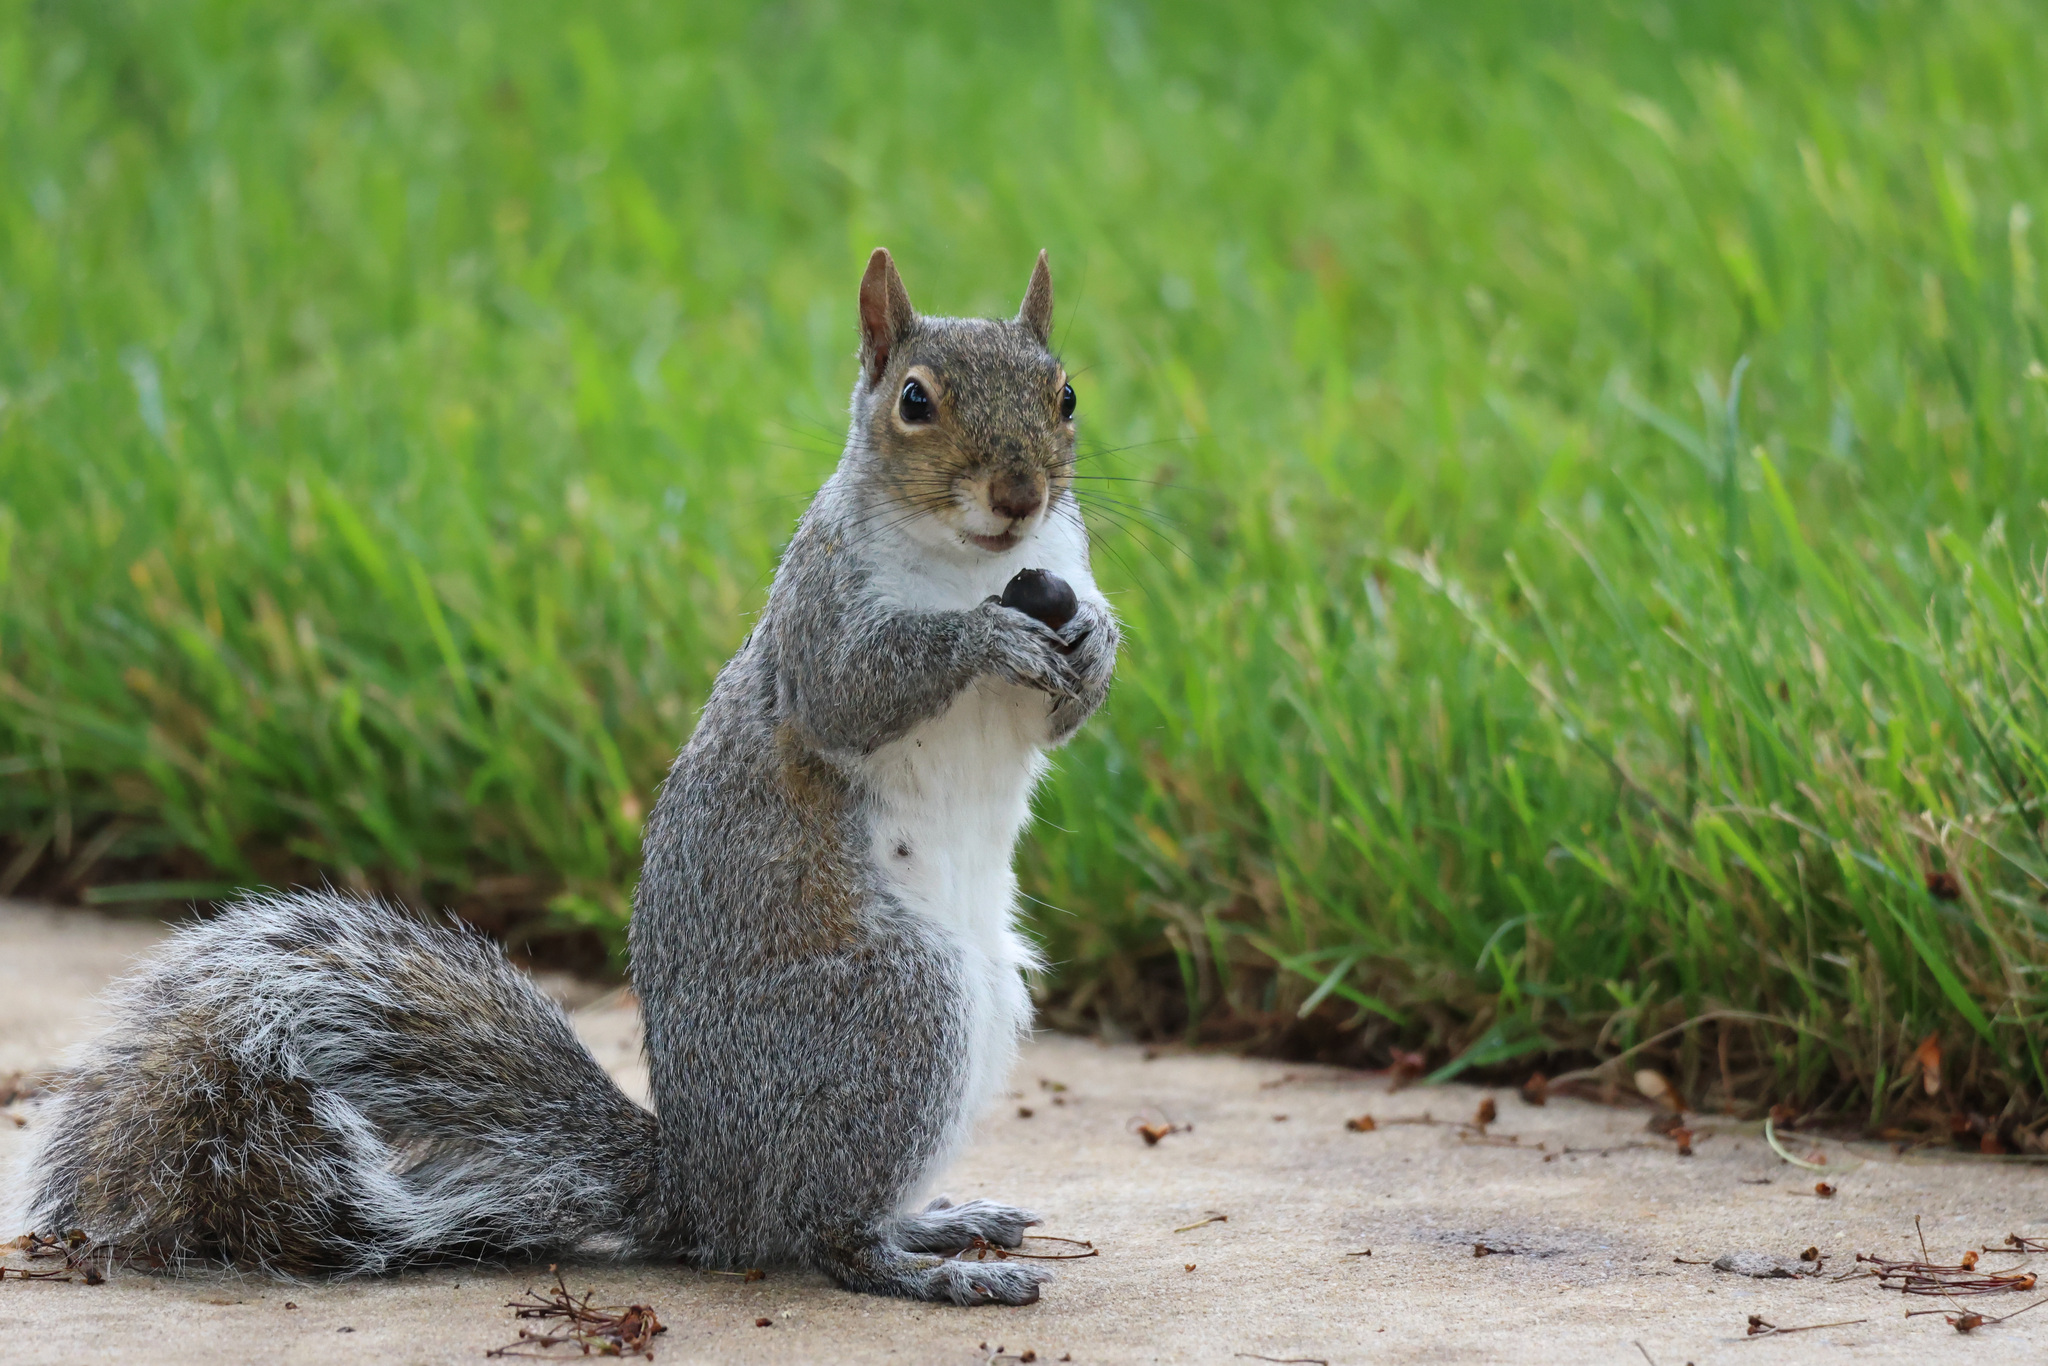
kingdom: Animalia
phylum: Chordata
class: Mammalia
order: Rodentia
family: Sciuridae
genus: Sciurus
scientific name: Sciurus carolinensis
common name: Eastern gray squirrel
